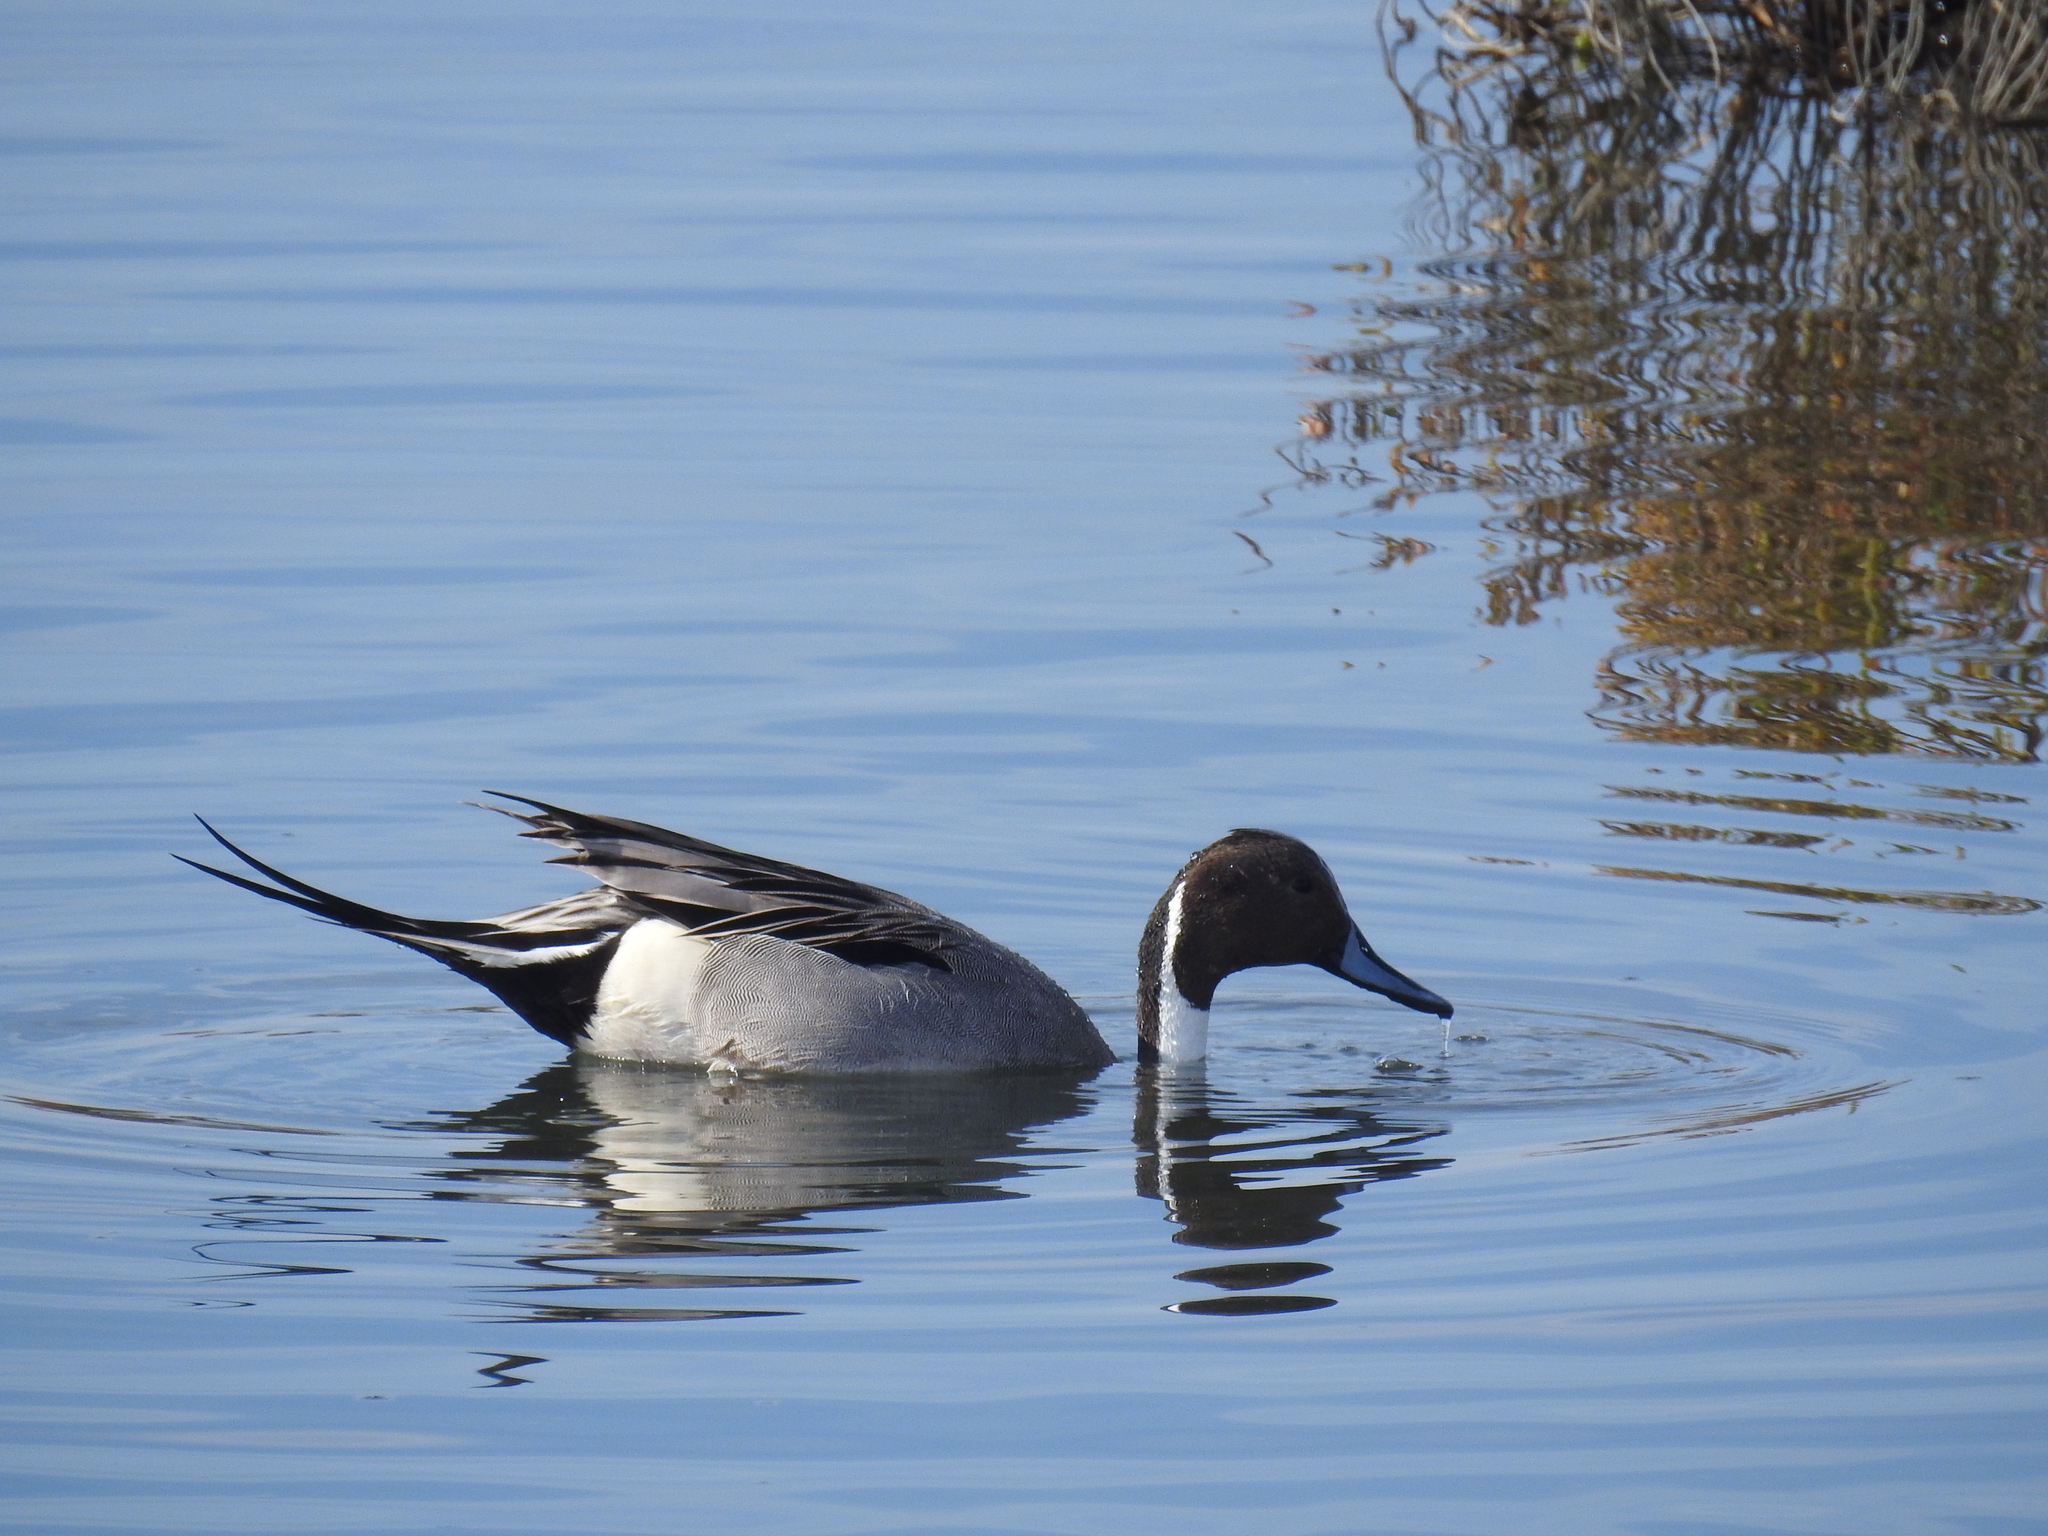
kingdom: Animalia
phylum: Chordata
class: Aves
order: Anseriformes
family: Anatidae
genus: Anas
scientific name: Anas acuta
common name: Northern pintail
